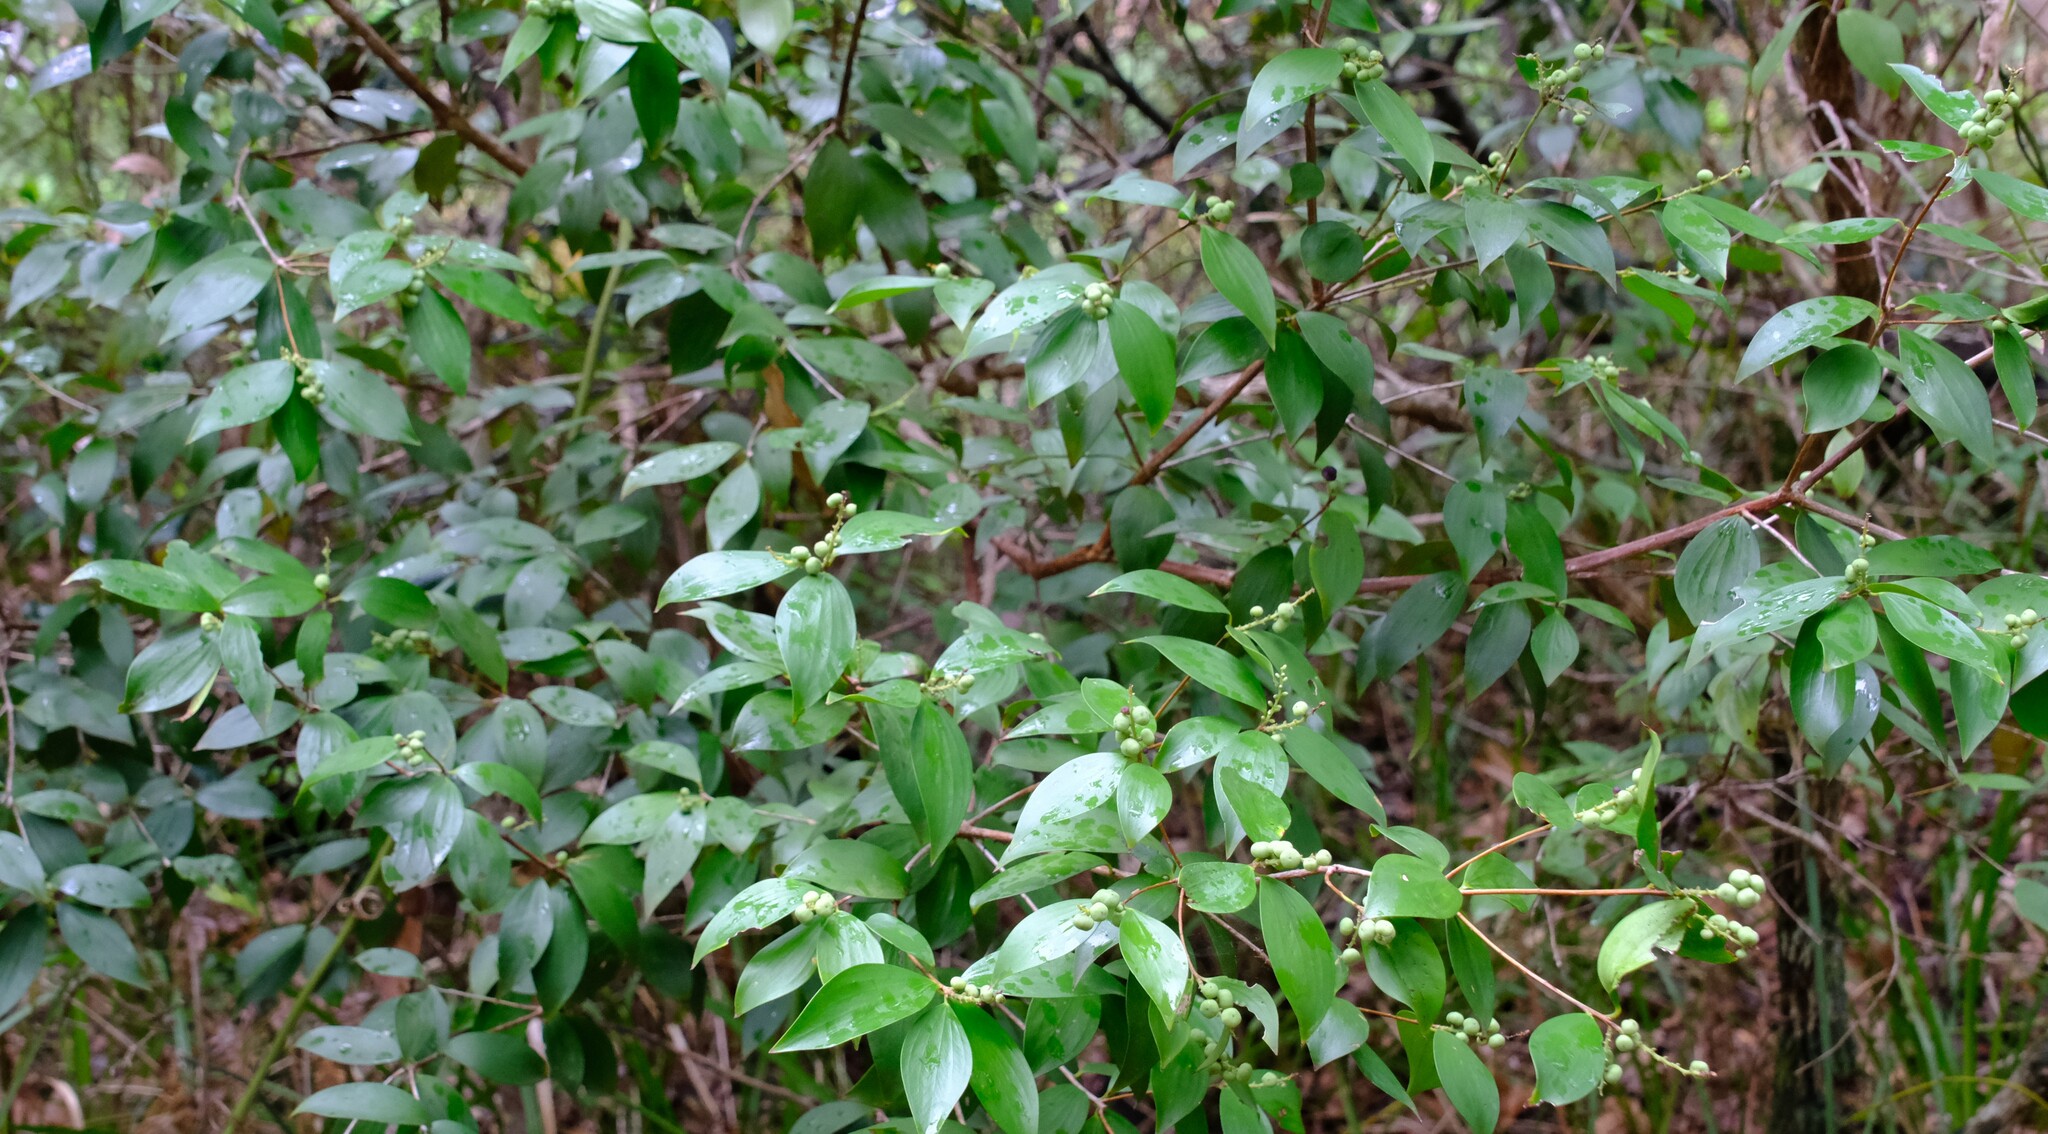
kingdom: Plantae
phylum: Tracheophyta
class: Magnoliopsida
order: Ericales
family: Ericaceae
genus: Trochocarpa
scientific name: Trochocarpa laurina
